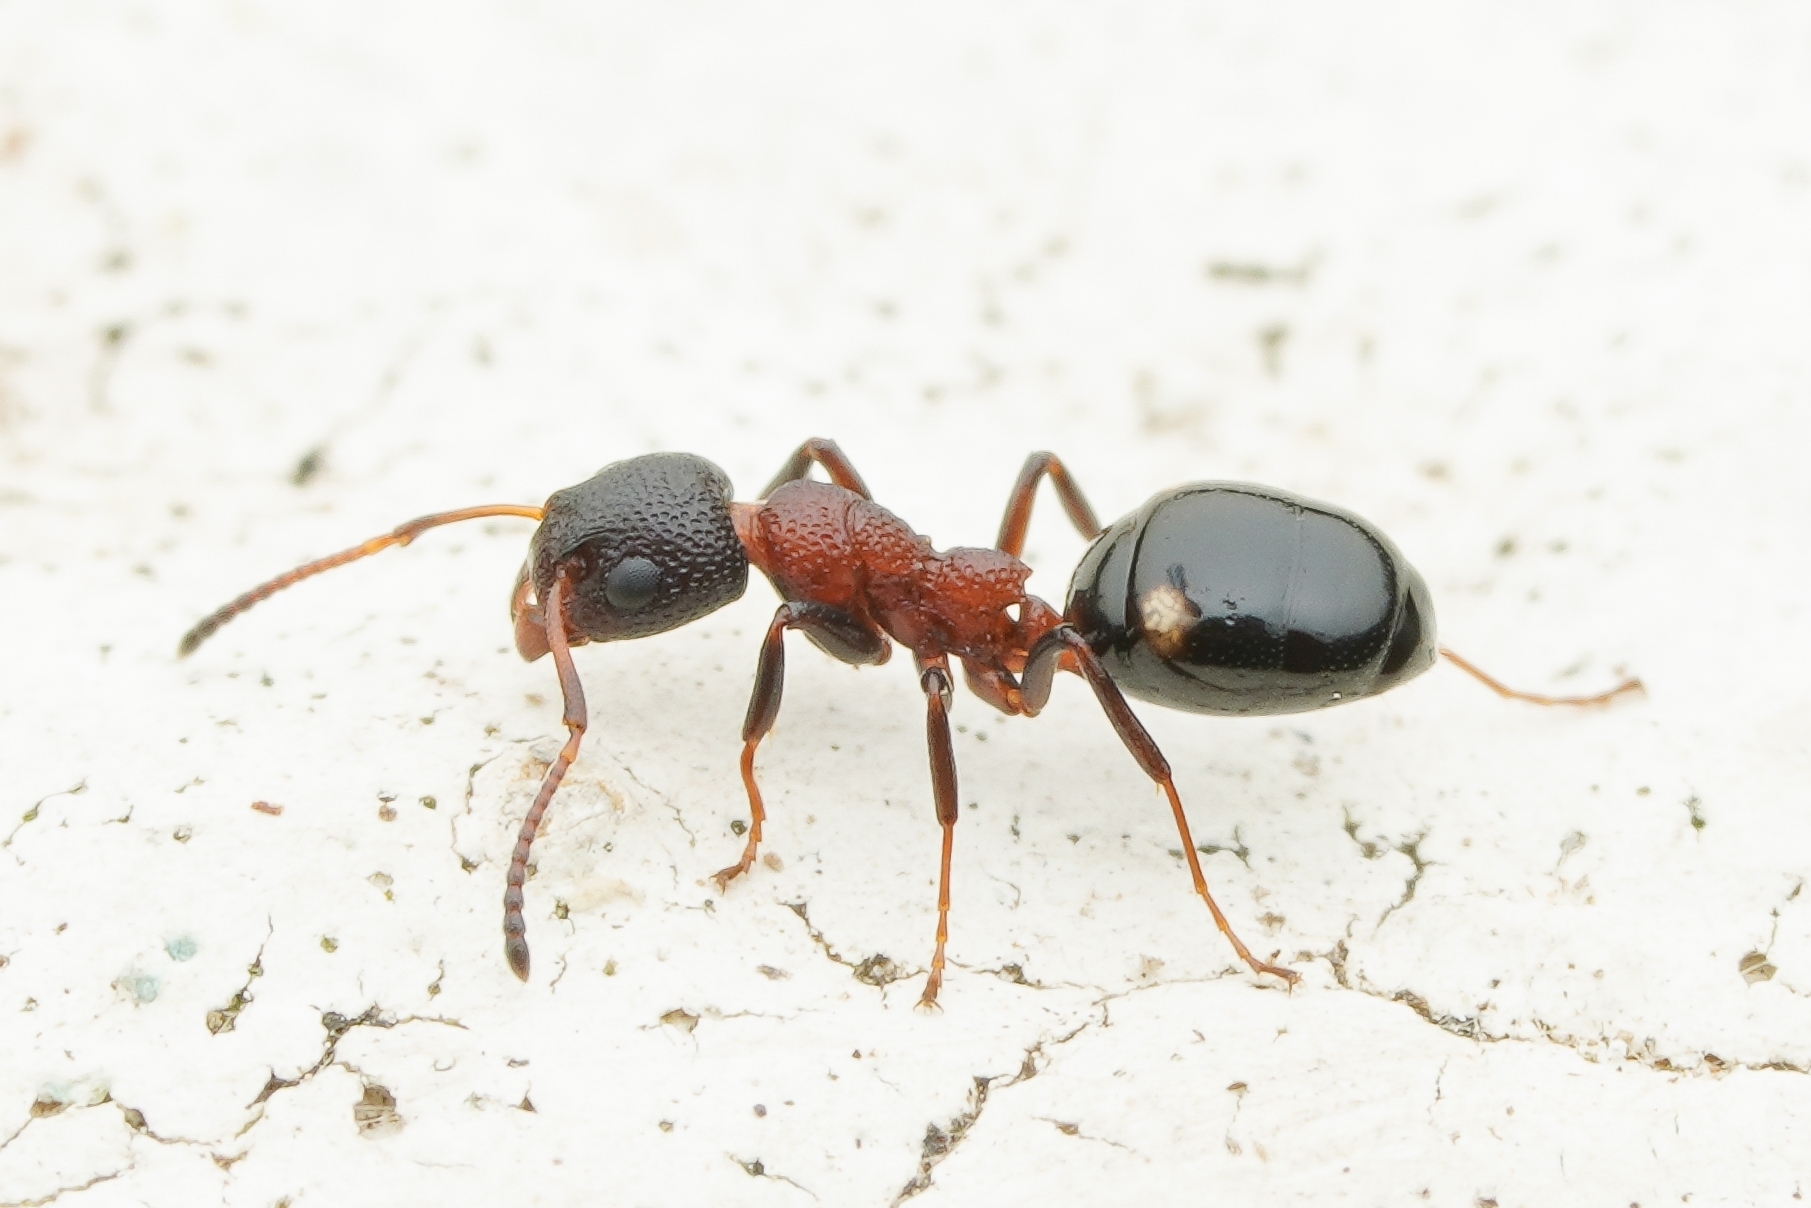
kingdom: Animalia
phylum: Arthropoda
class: Insecta
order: Hymenoptera
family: Formicidae
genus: Dolichoderus
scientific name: Dolichoderus sibiricus
